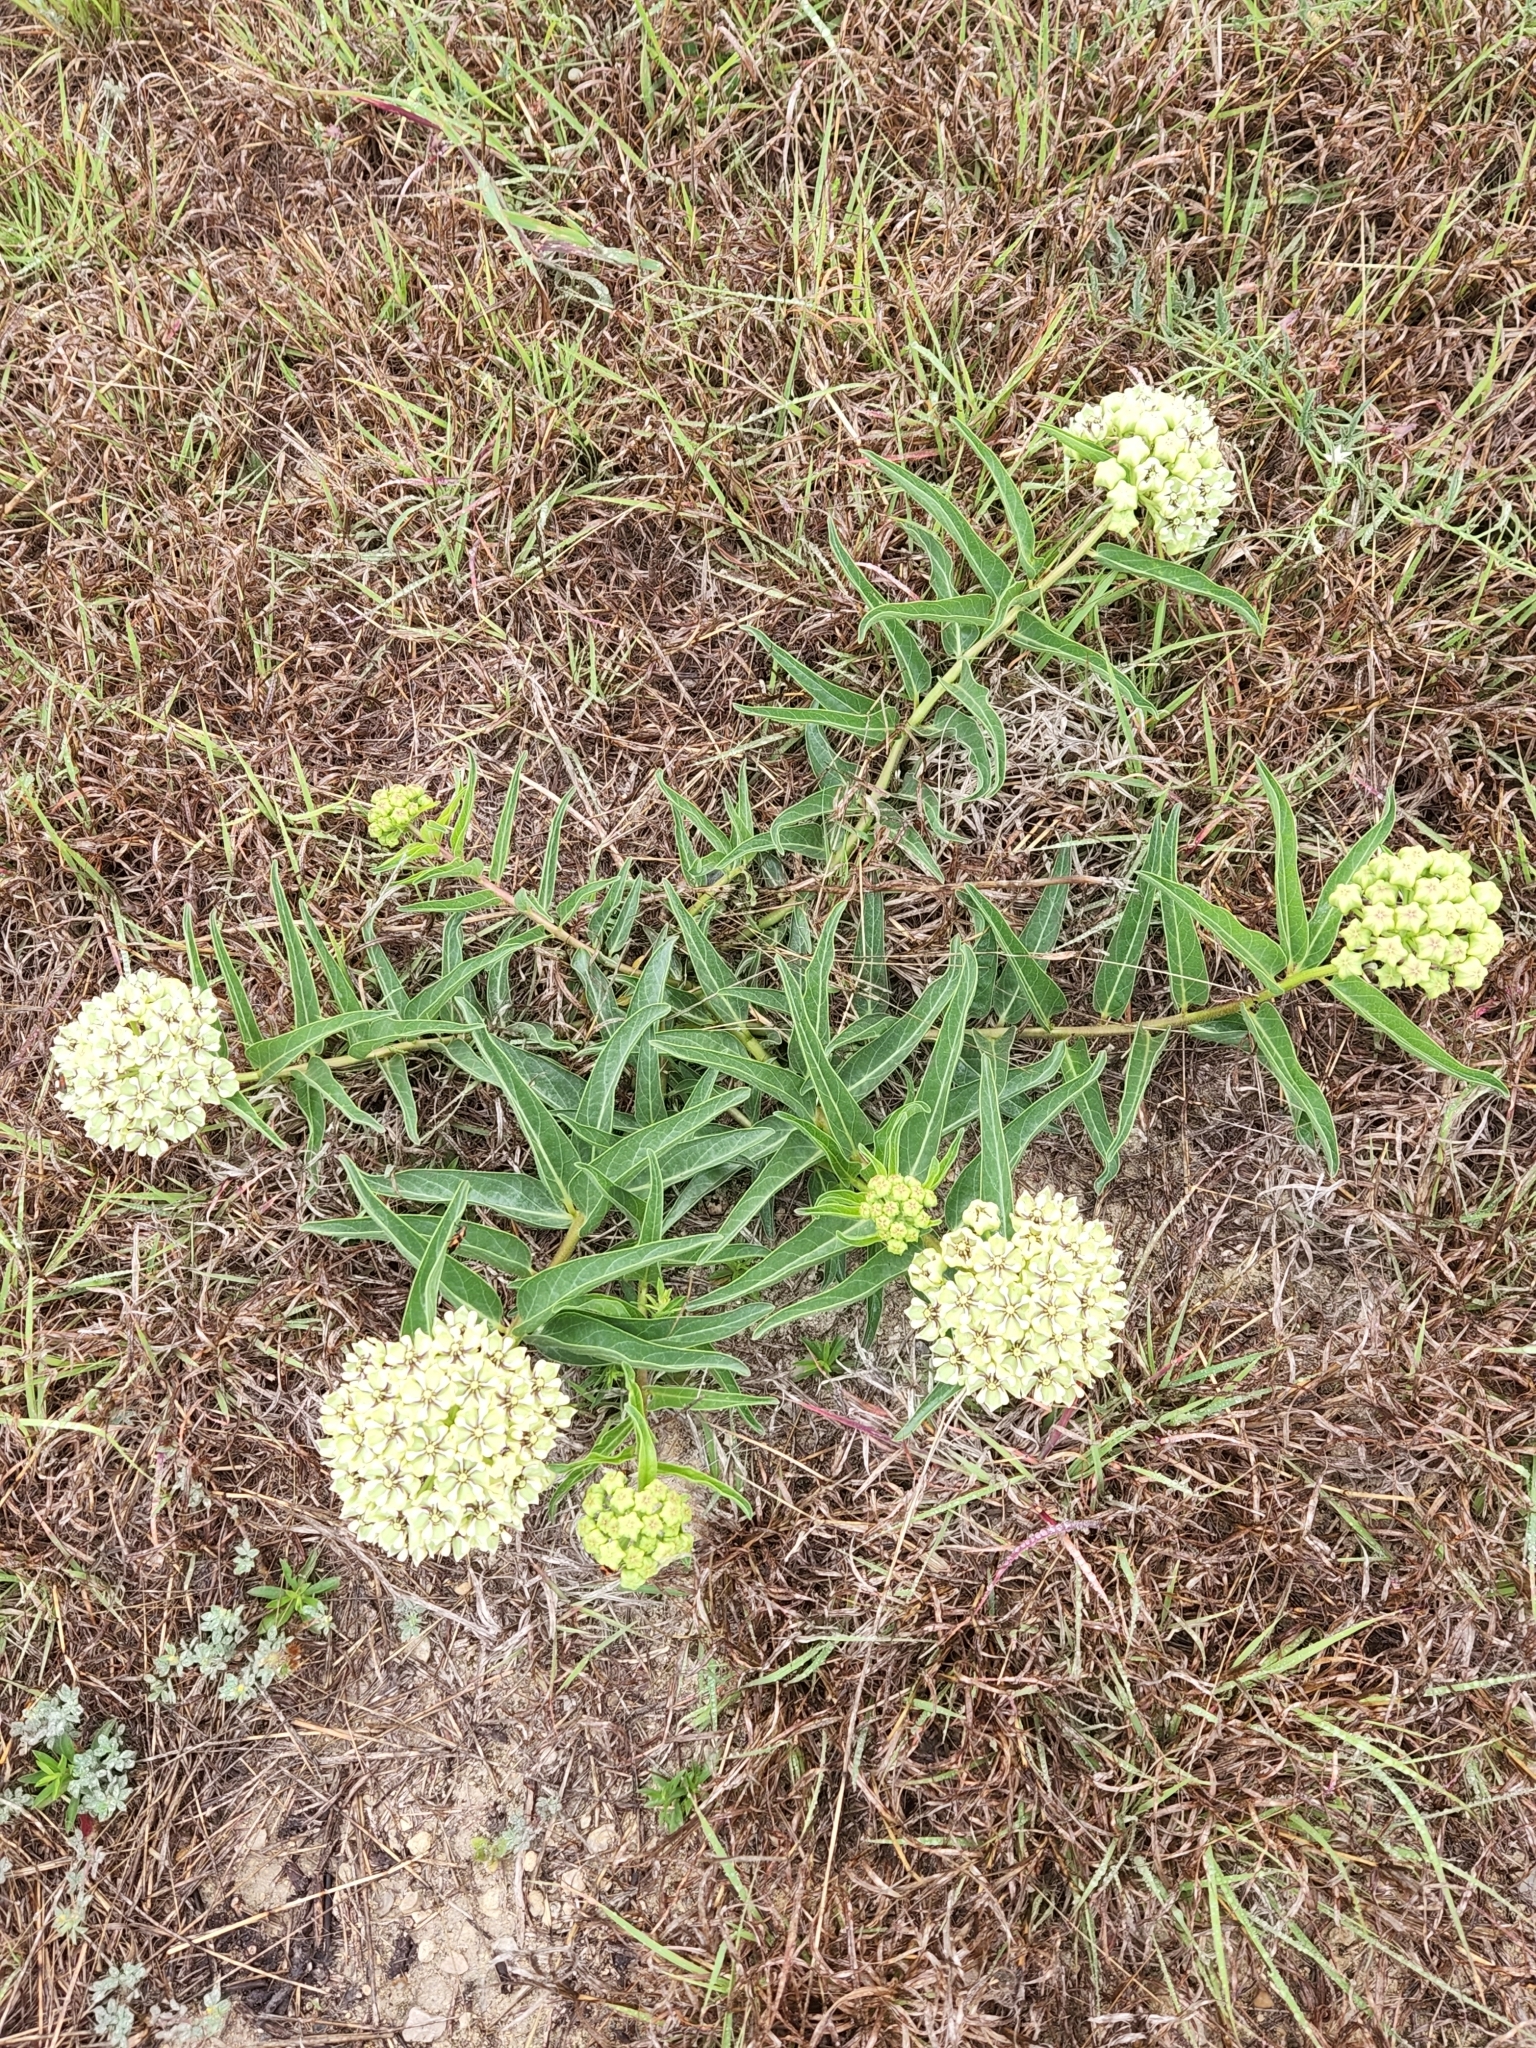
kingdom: Plantae
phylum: Tracheophyta
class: Magnoliopsida
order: Gentianales
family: Apocynaceae
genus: Asclepias
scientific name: Asclepias asperula
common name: Antelope horns
